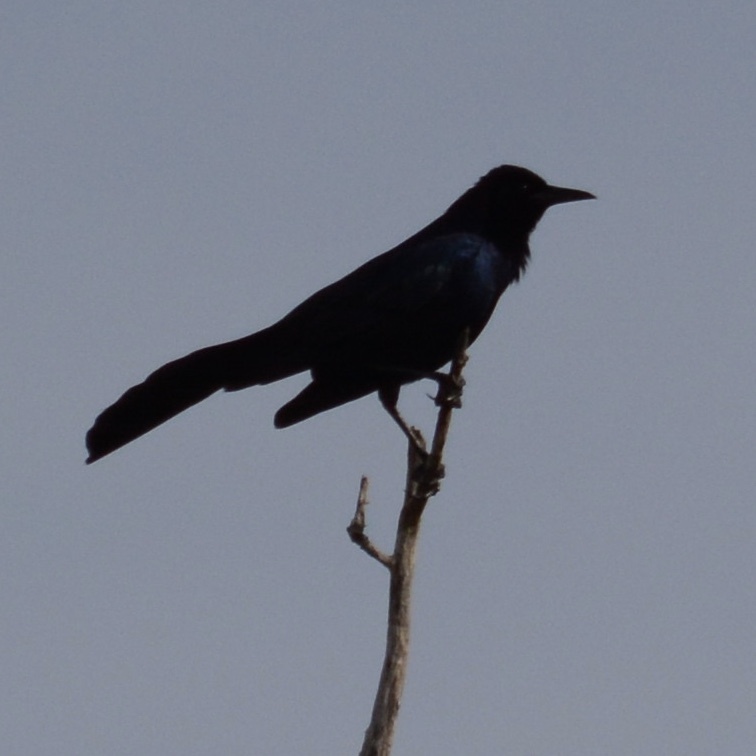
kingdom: Animalia
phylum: Chordata
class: Aves
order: Passeriformes
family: Icteridae
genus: Quiscalus
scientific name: Quiscalus major
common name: Boat-tailed grackle
